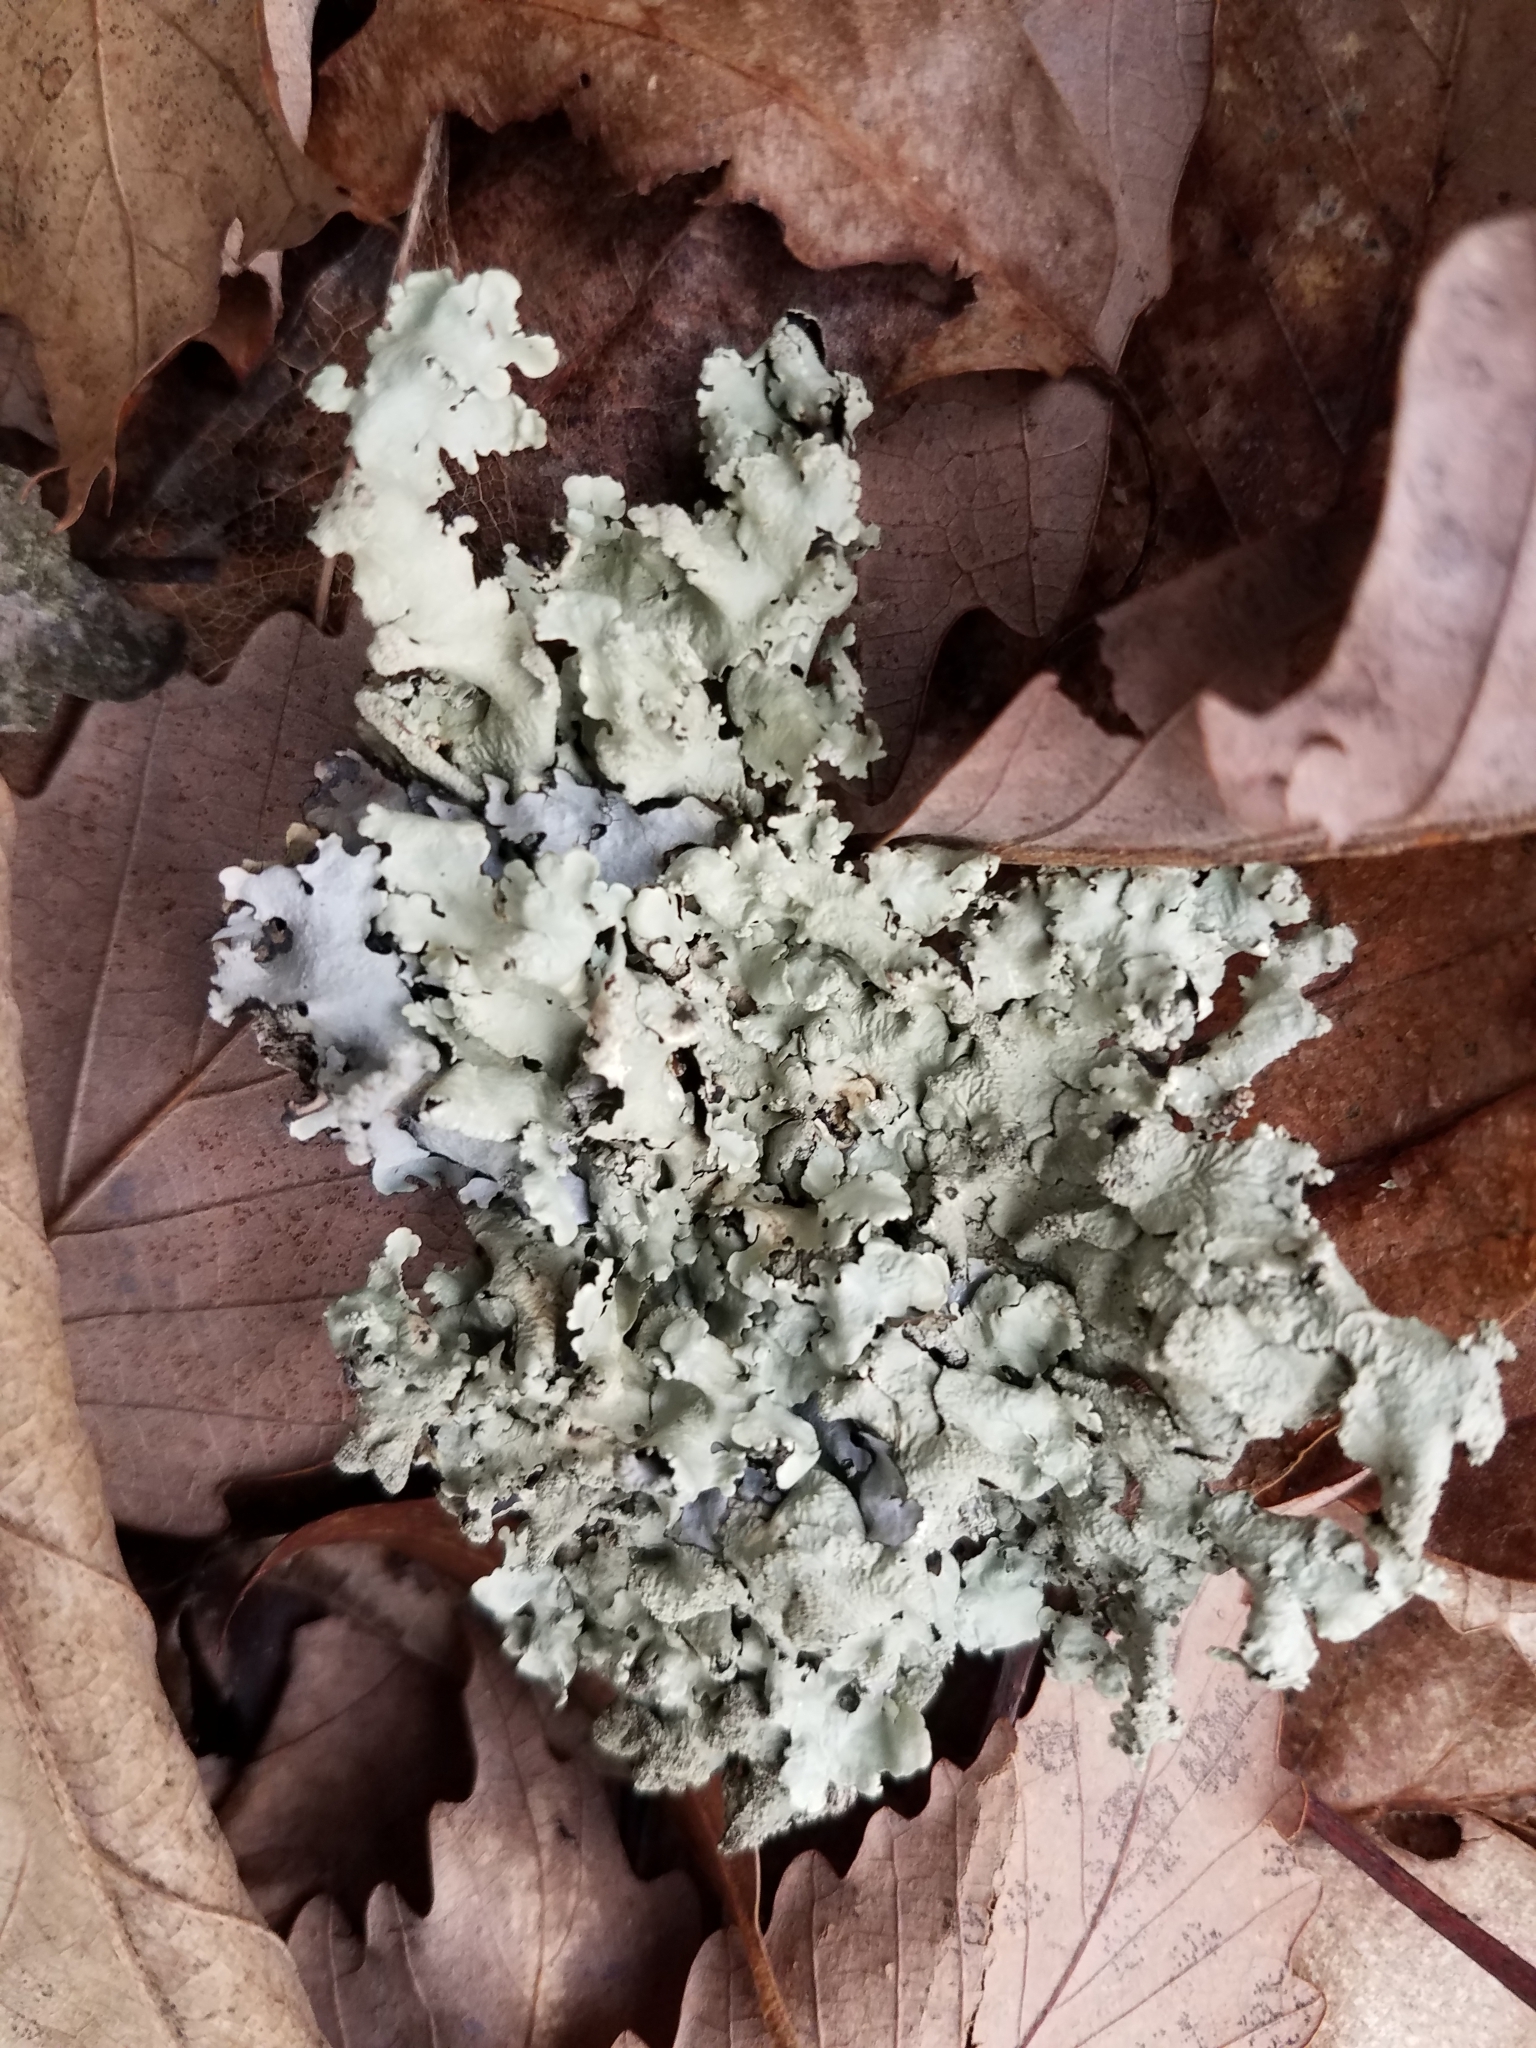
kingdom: Fungi
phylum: Ascomycota
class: Lecanoromycetes
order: Lecanorales
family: Parmeliaceae
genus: Flavoparmelia
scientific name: Flavoparmelia caperata
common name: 40-mile per hour lichen
